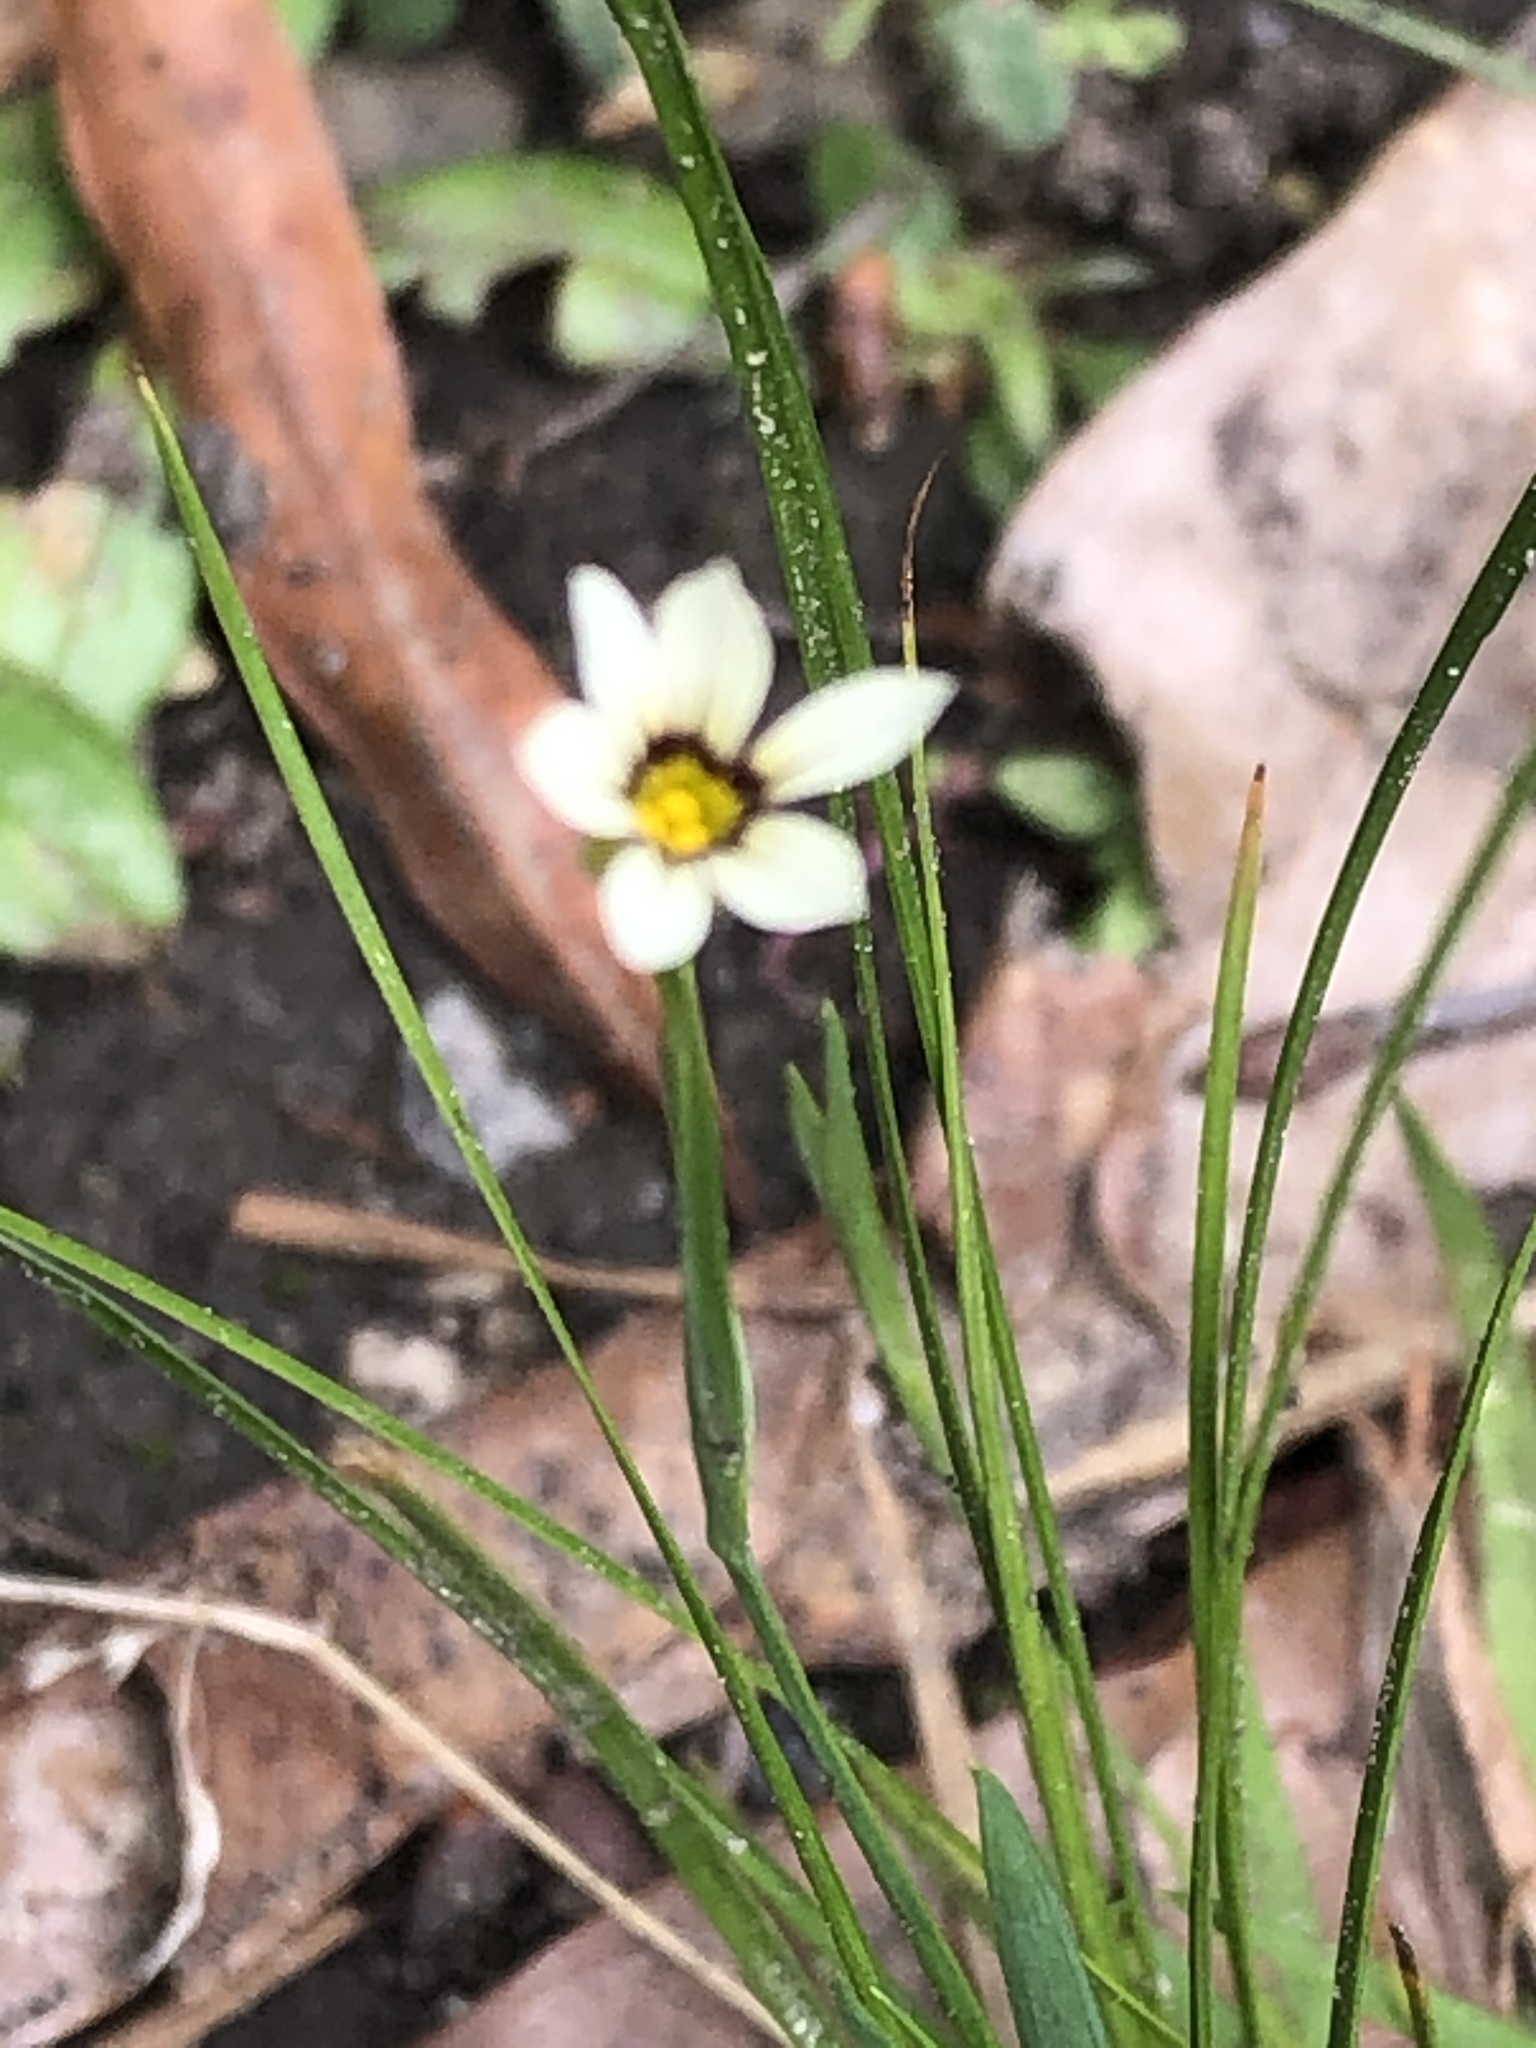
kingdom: Plantae
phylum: Tracheophyta
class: Liliopsida
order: Asparagales
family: Iridaceae
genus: Sisyrinchium
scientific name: Sisyrinchium micranthum
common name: Bermuda pigroot
